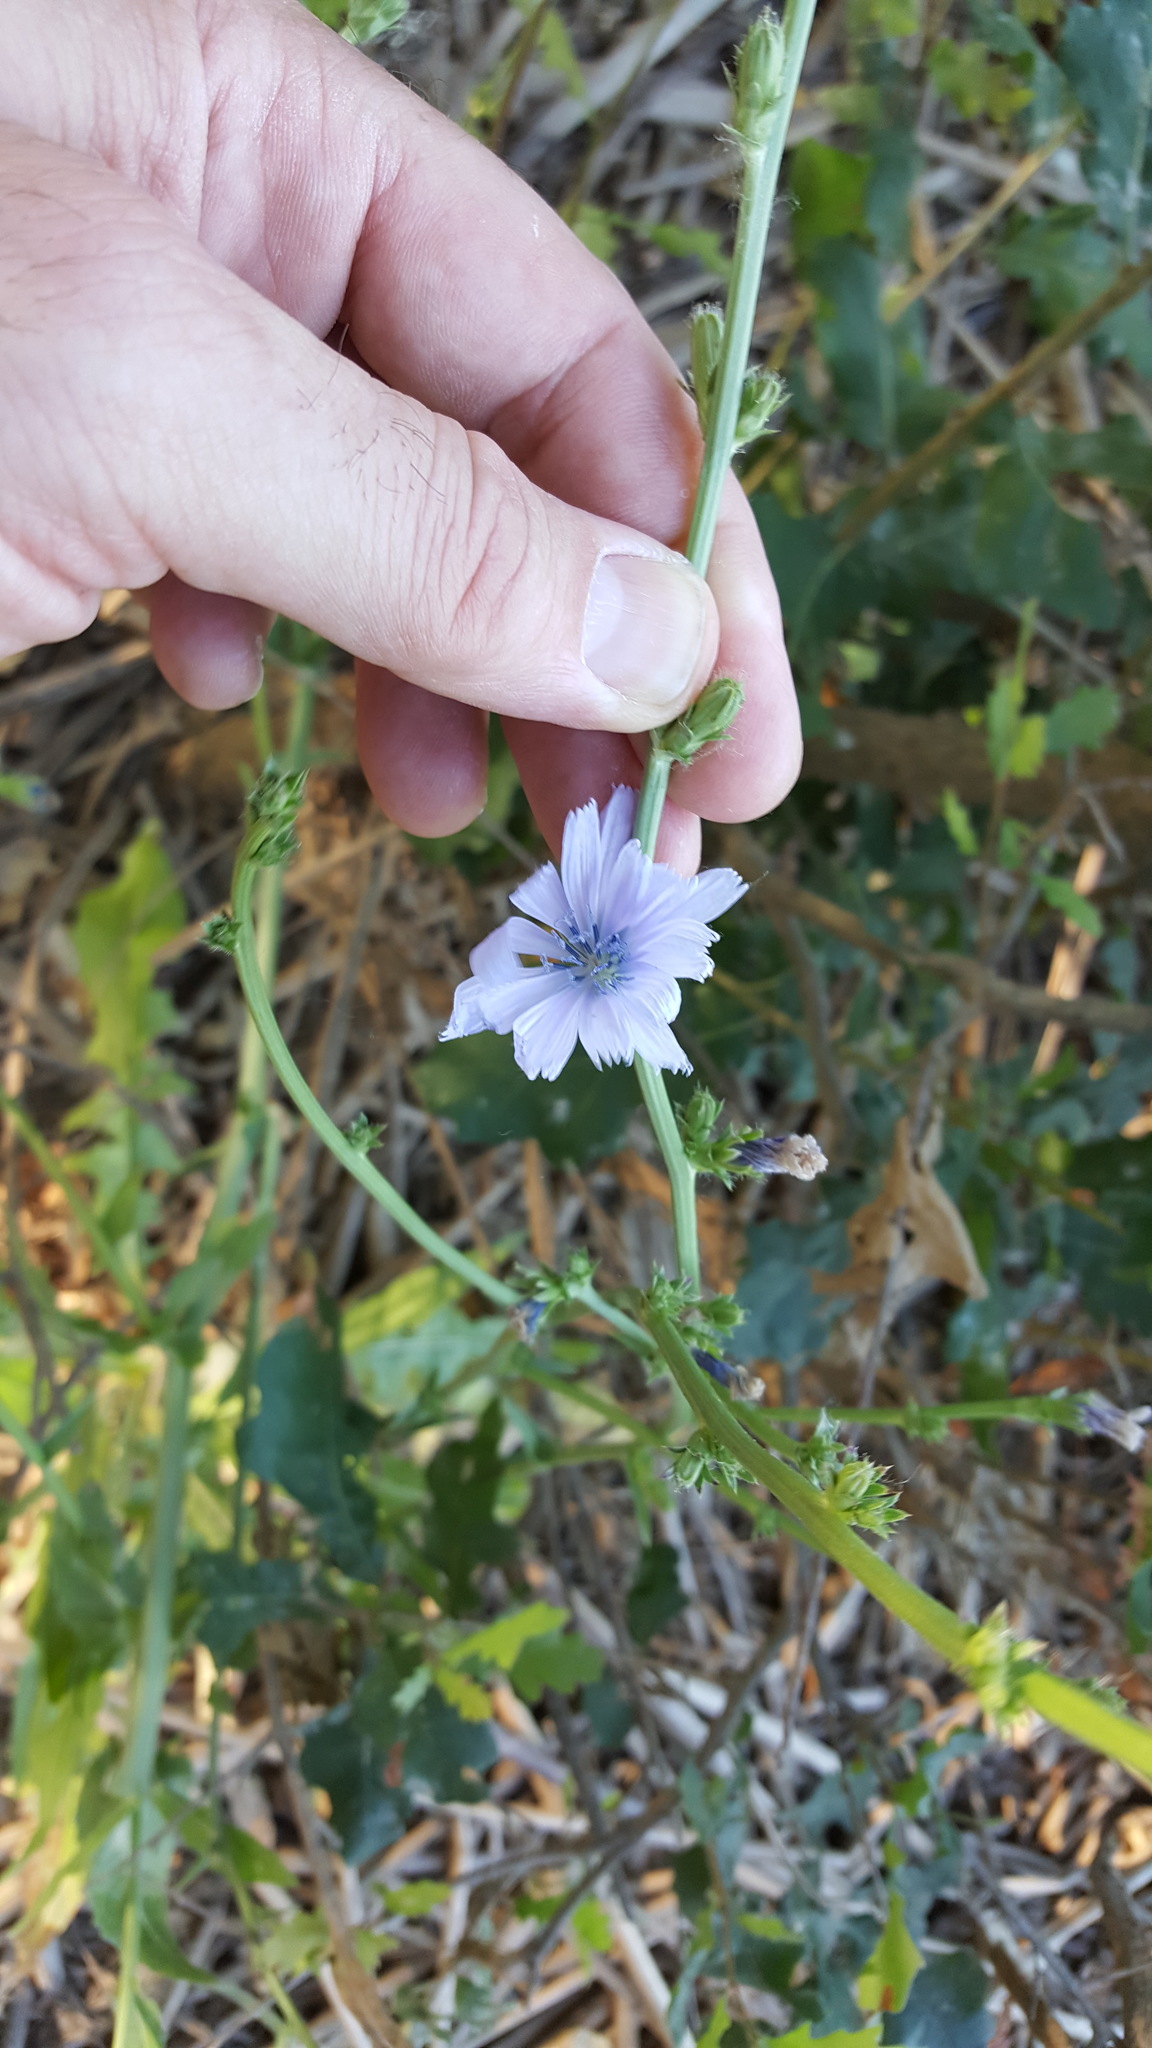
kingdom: Plantae
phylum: Tracheophyta
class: Magnoliopsida
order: Asterales
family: Asteraceae
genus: Cichorium
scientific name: Cichorium intybus
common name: Chicory
